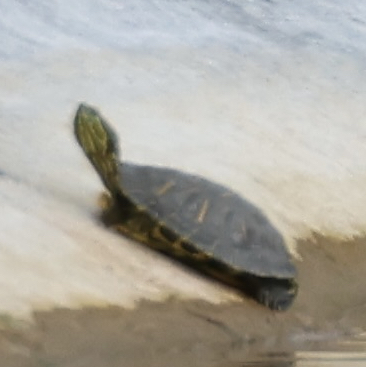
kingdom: Animalia
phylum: Chordata
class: Testudines
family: Emydidae
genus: Trachemys
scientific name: Trachemys scripta
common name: Slider
